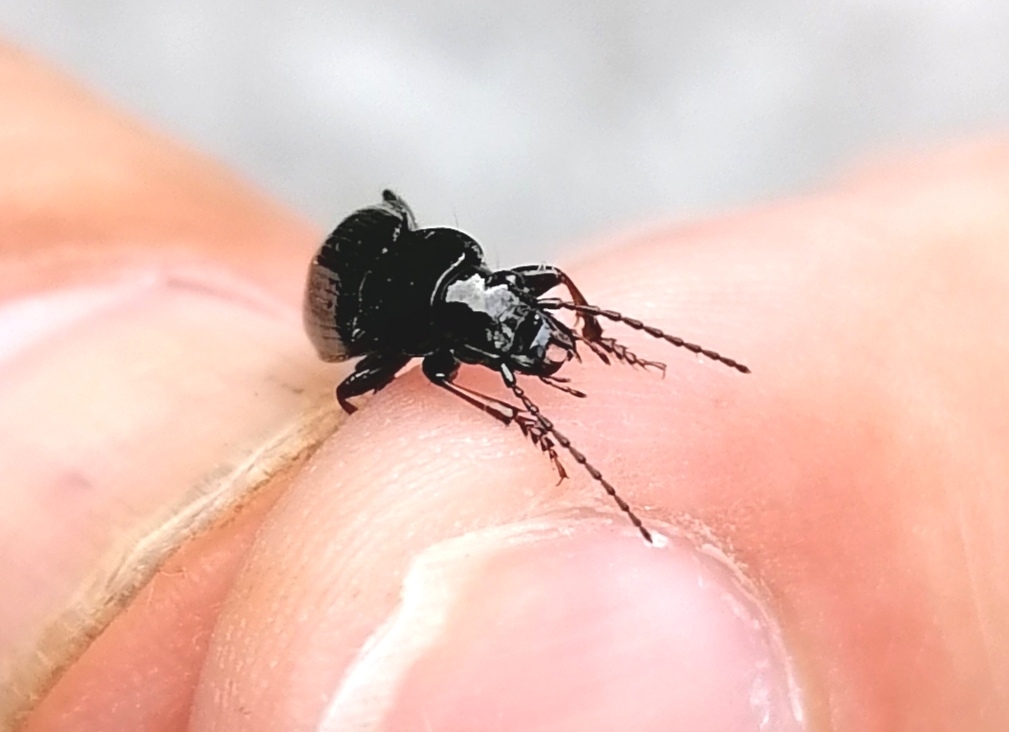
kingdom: Animalia
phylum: Arthropoda
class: Insecta
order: Coleoptera
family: Carabidae
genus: Pterostichus
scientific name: Pterostichus melanarius
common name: European dark harp ground beetle
